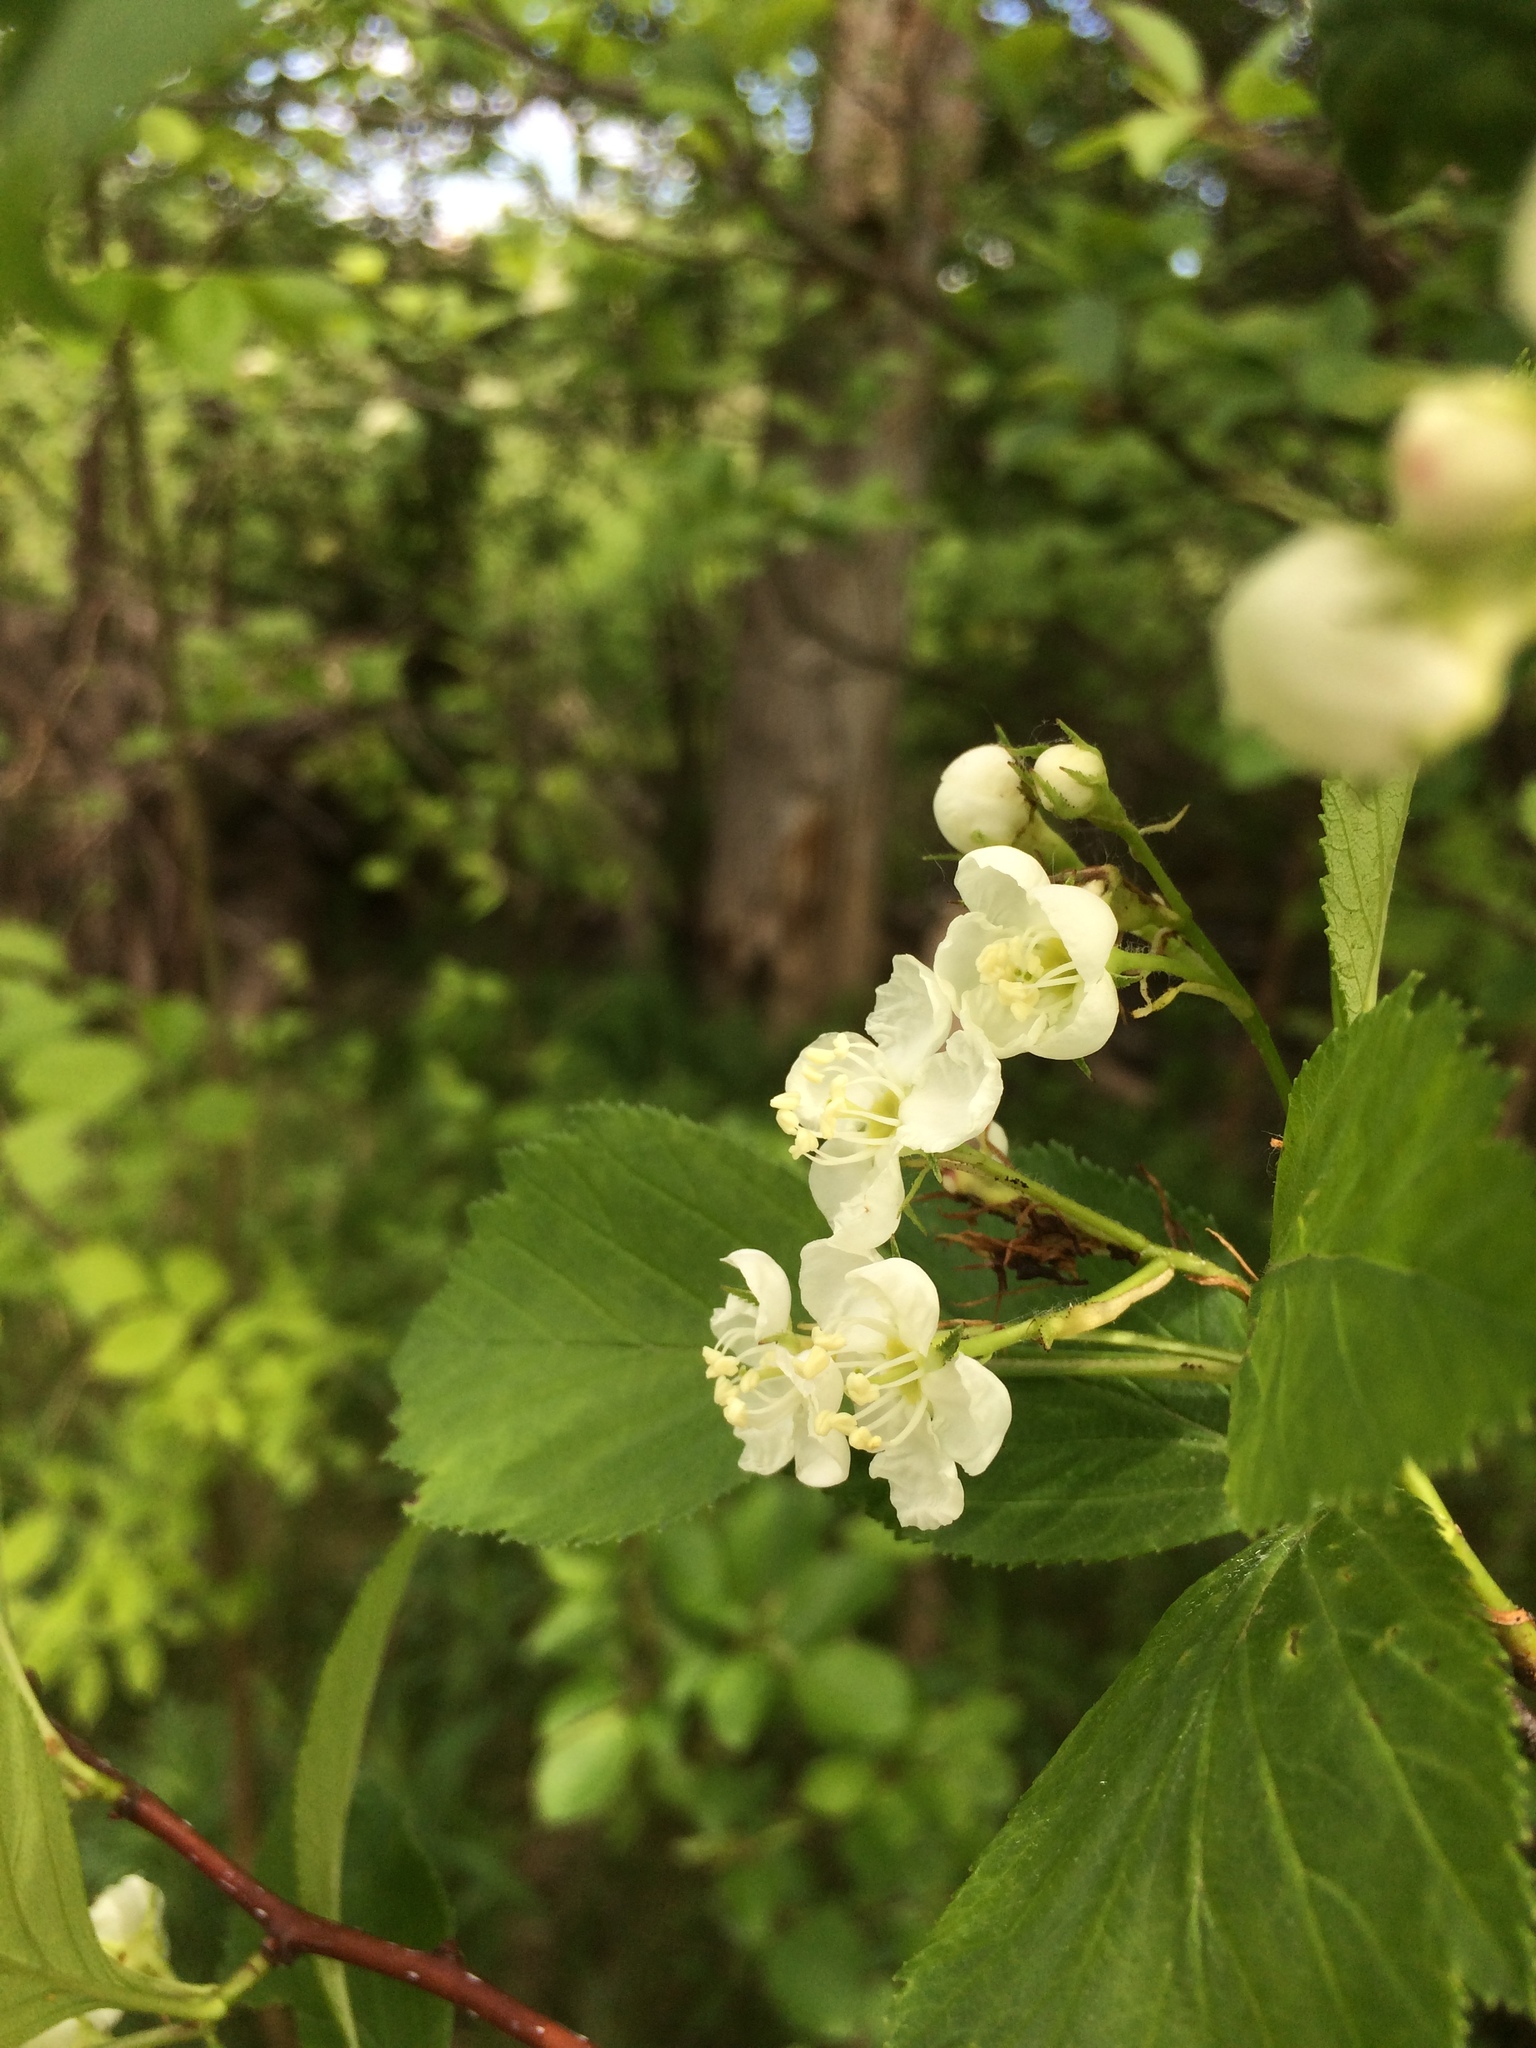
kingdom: Plantae
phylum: Tracheophyta
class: Magnoliopsida
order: Rosales
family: Rosaceae
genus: Crataegus
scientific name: Crataegus macracantha
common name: Large-thorn hawthorn
